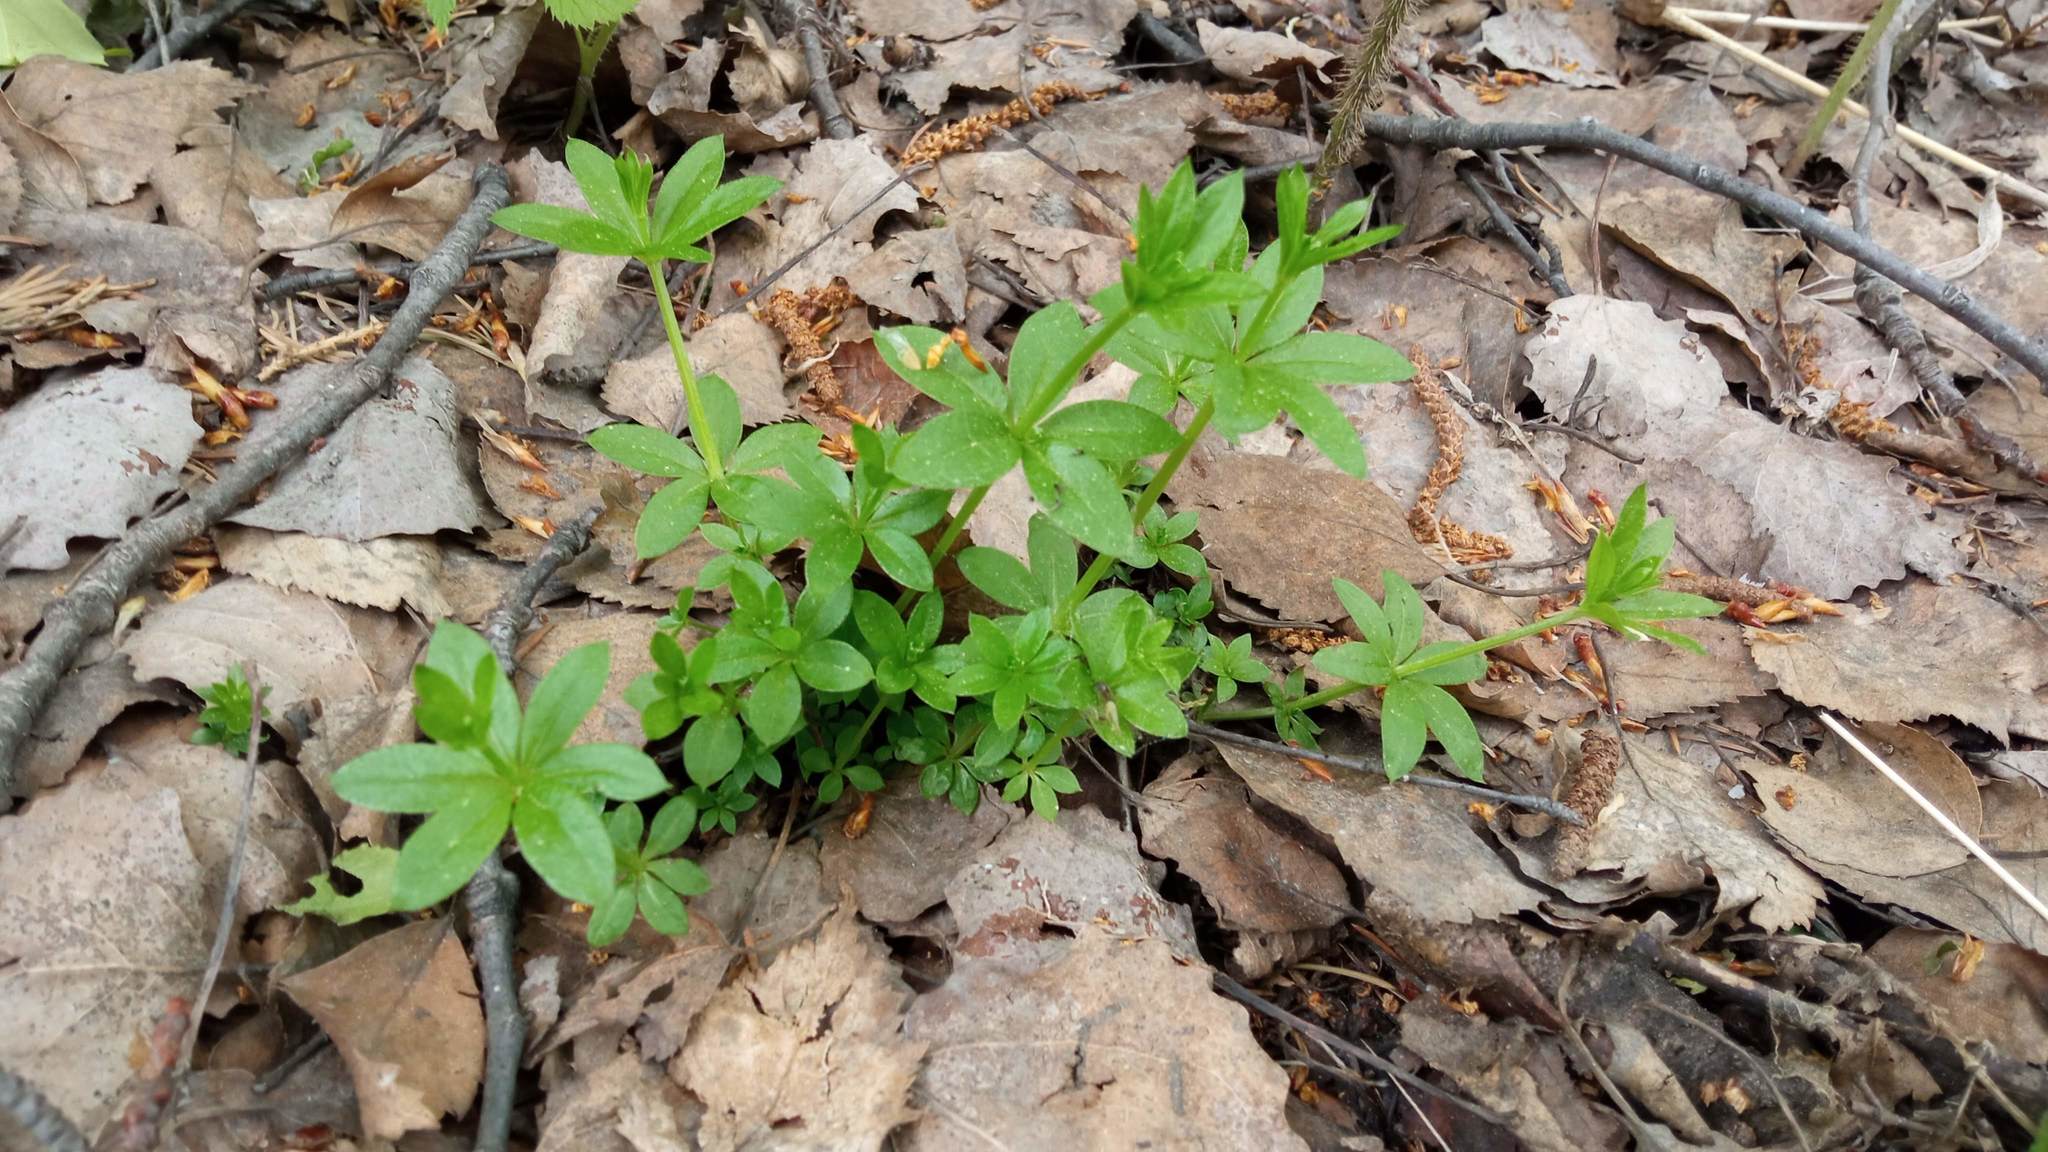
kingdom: Plantae
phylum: Tracheophyta
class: Magnoliopsida
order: Gentianales
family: Rubiaceae
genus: Galium
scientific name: Galium triflorum
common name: Fragrant bedstraw
